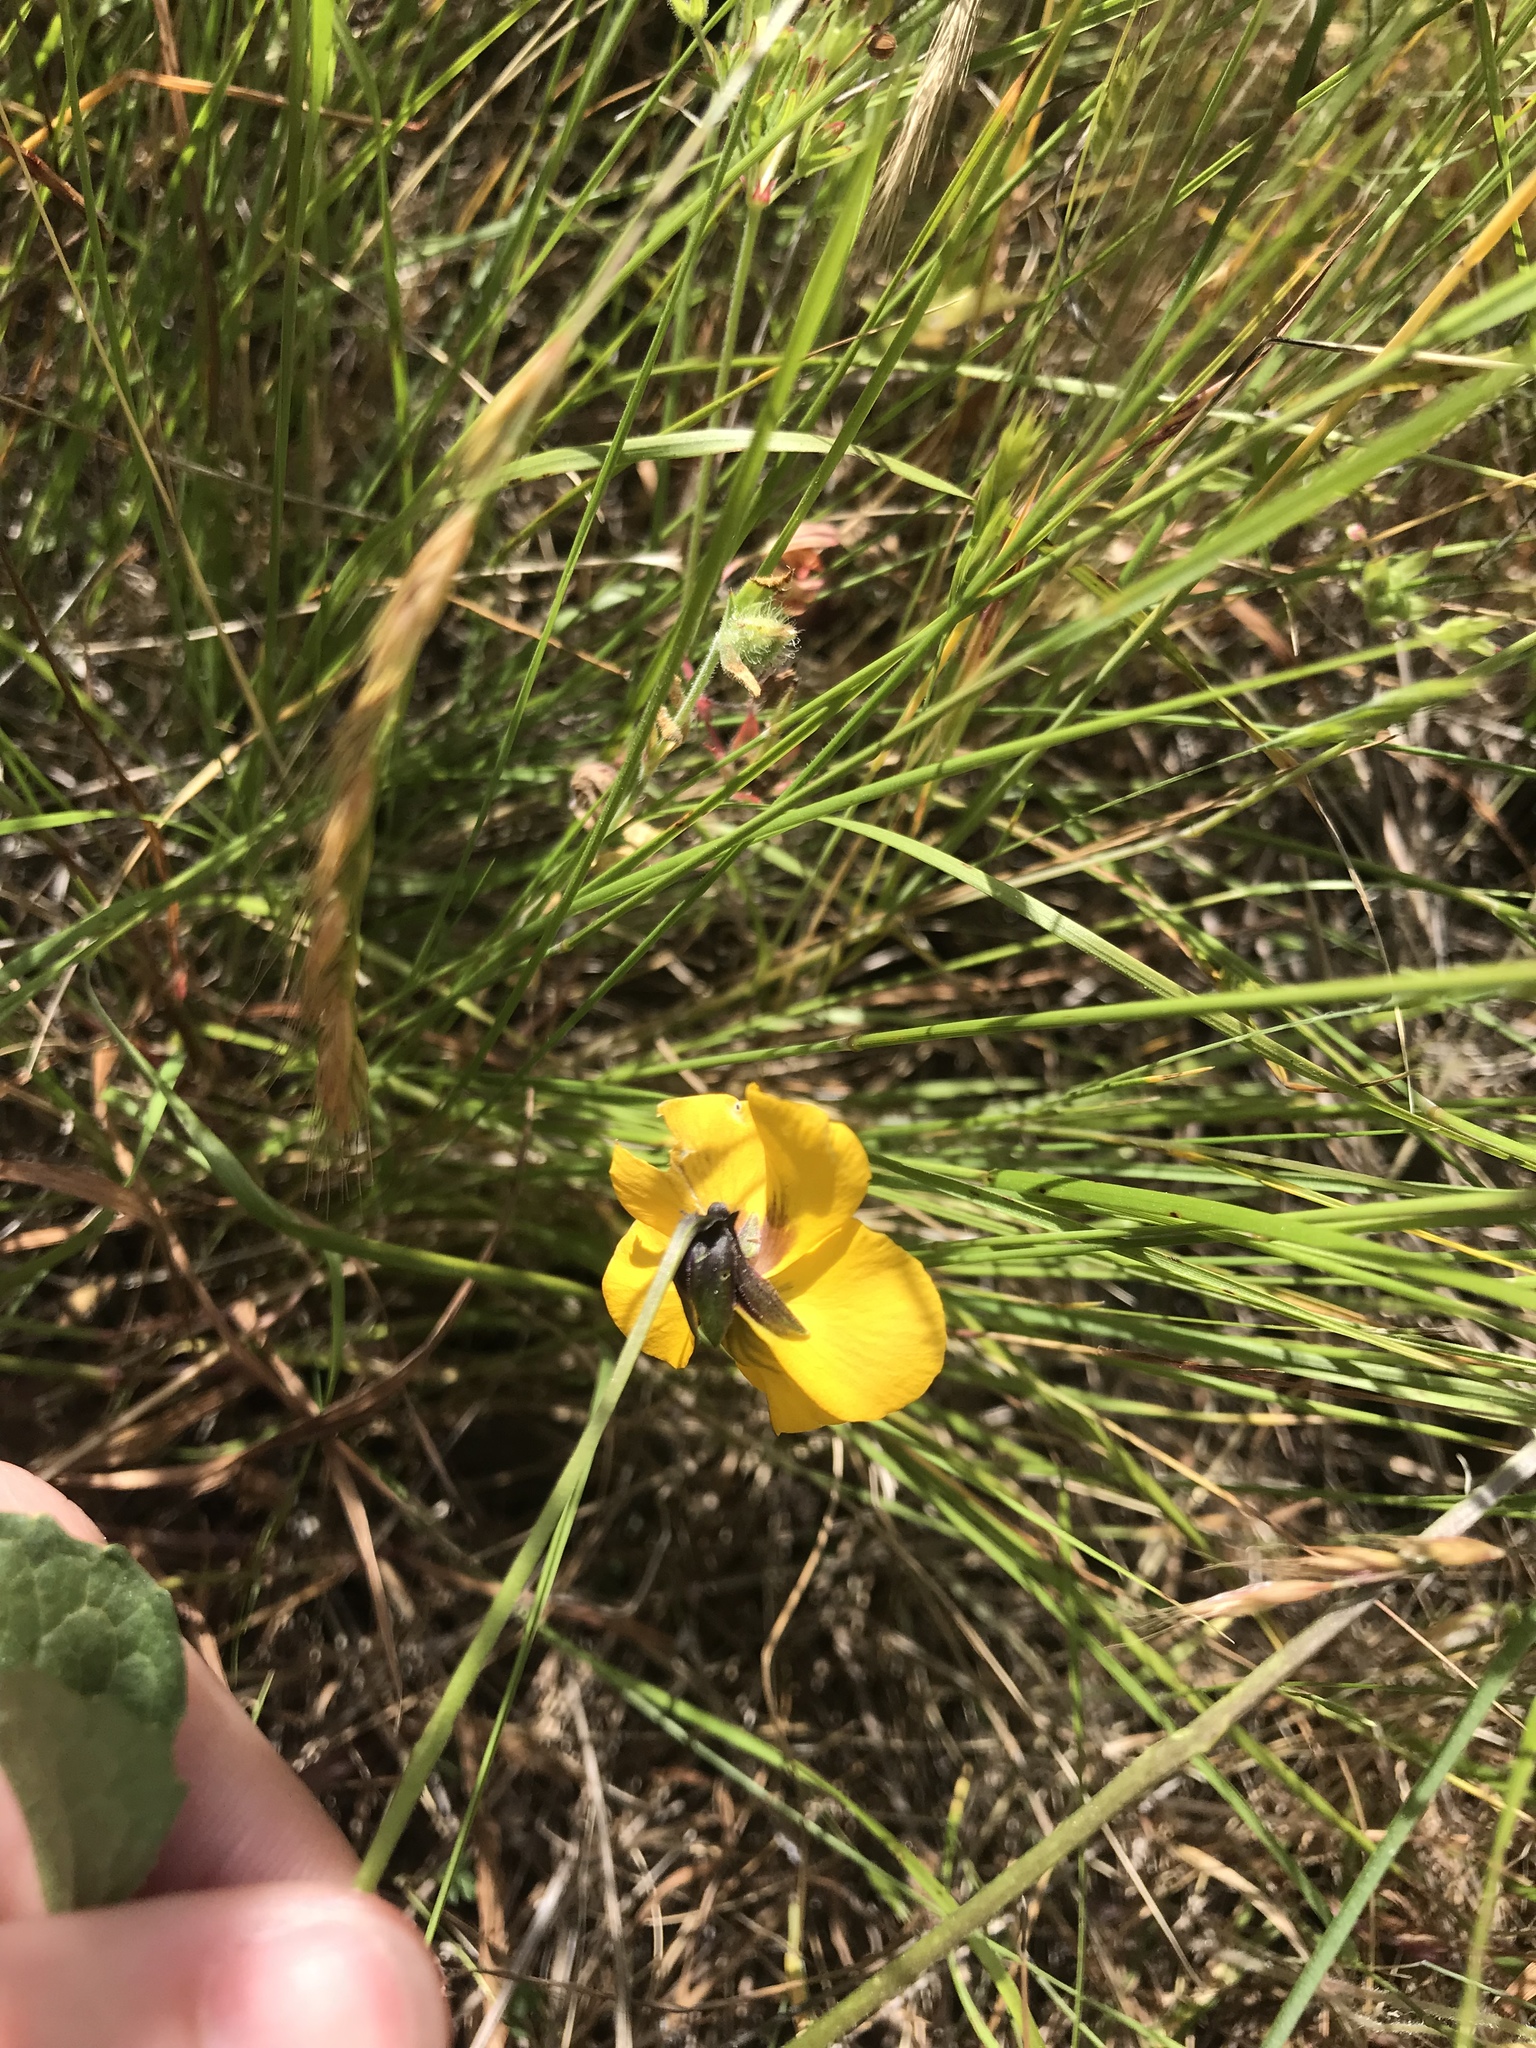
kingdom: Plantae
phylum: Tracheophyta
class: Magnoliopsida
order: Malpighiales
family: Violaceae
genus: Viola
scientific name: Viola pedunculata
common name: California golden violet
